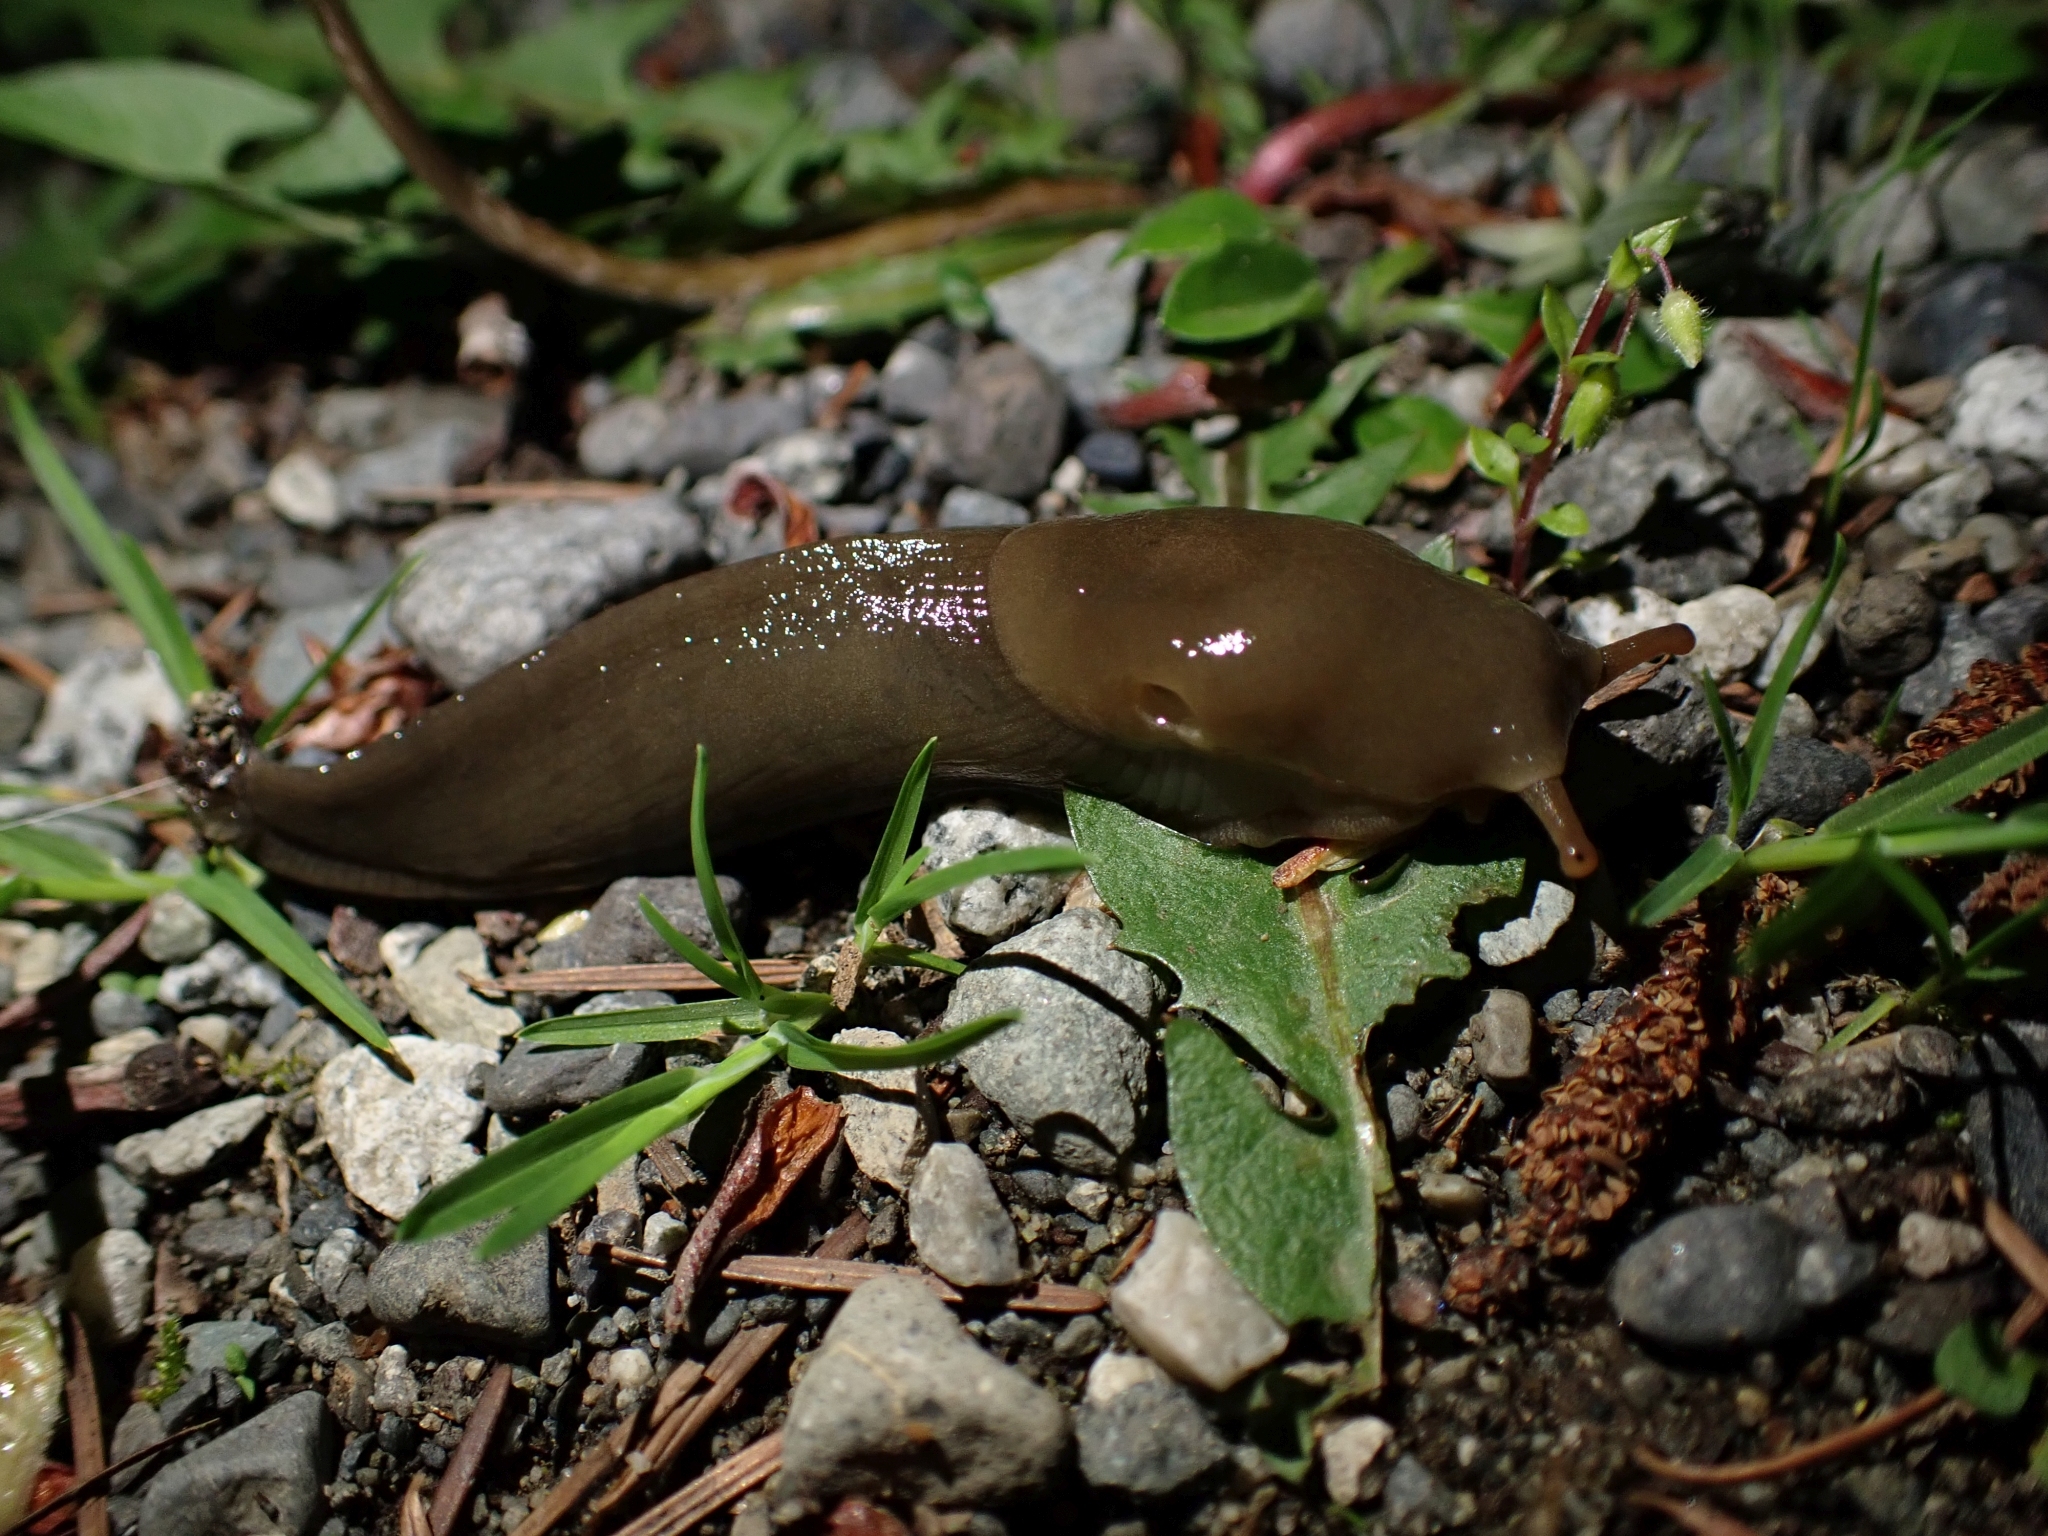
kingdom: Animalia
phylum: Mollusca
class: Gastropoda
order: Stylommatophora
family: Ariolimacidae
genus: Ariolimax
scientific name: Ariolimax columbianus
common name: Pacific banana slug
